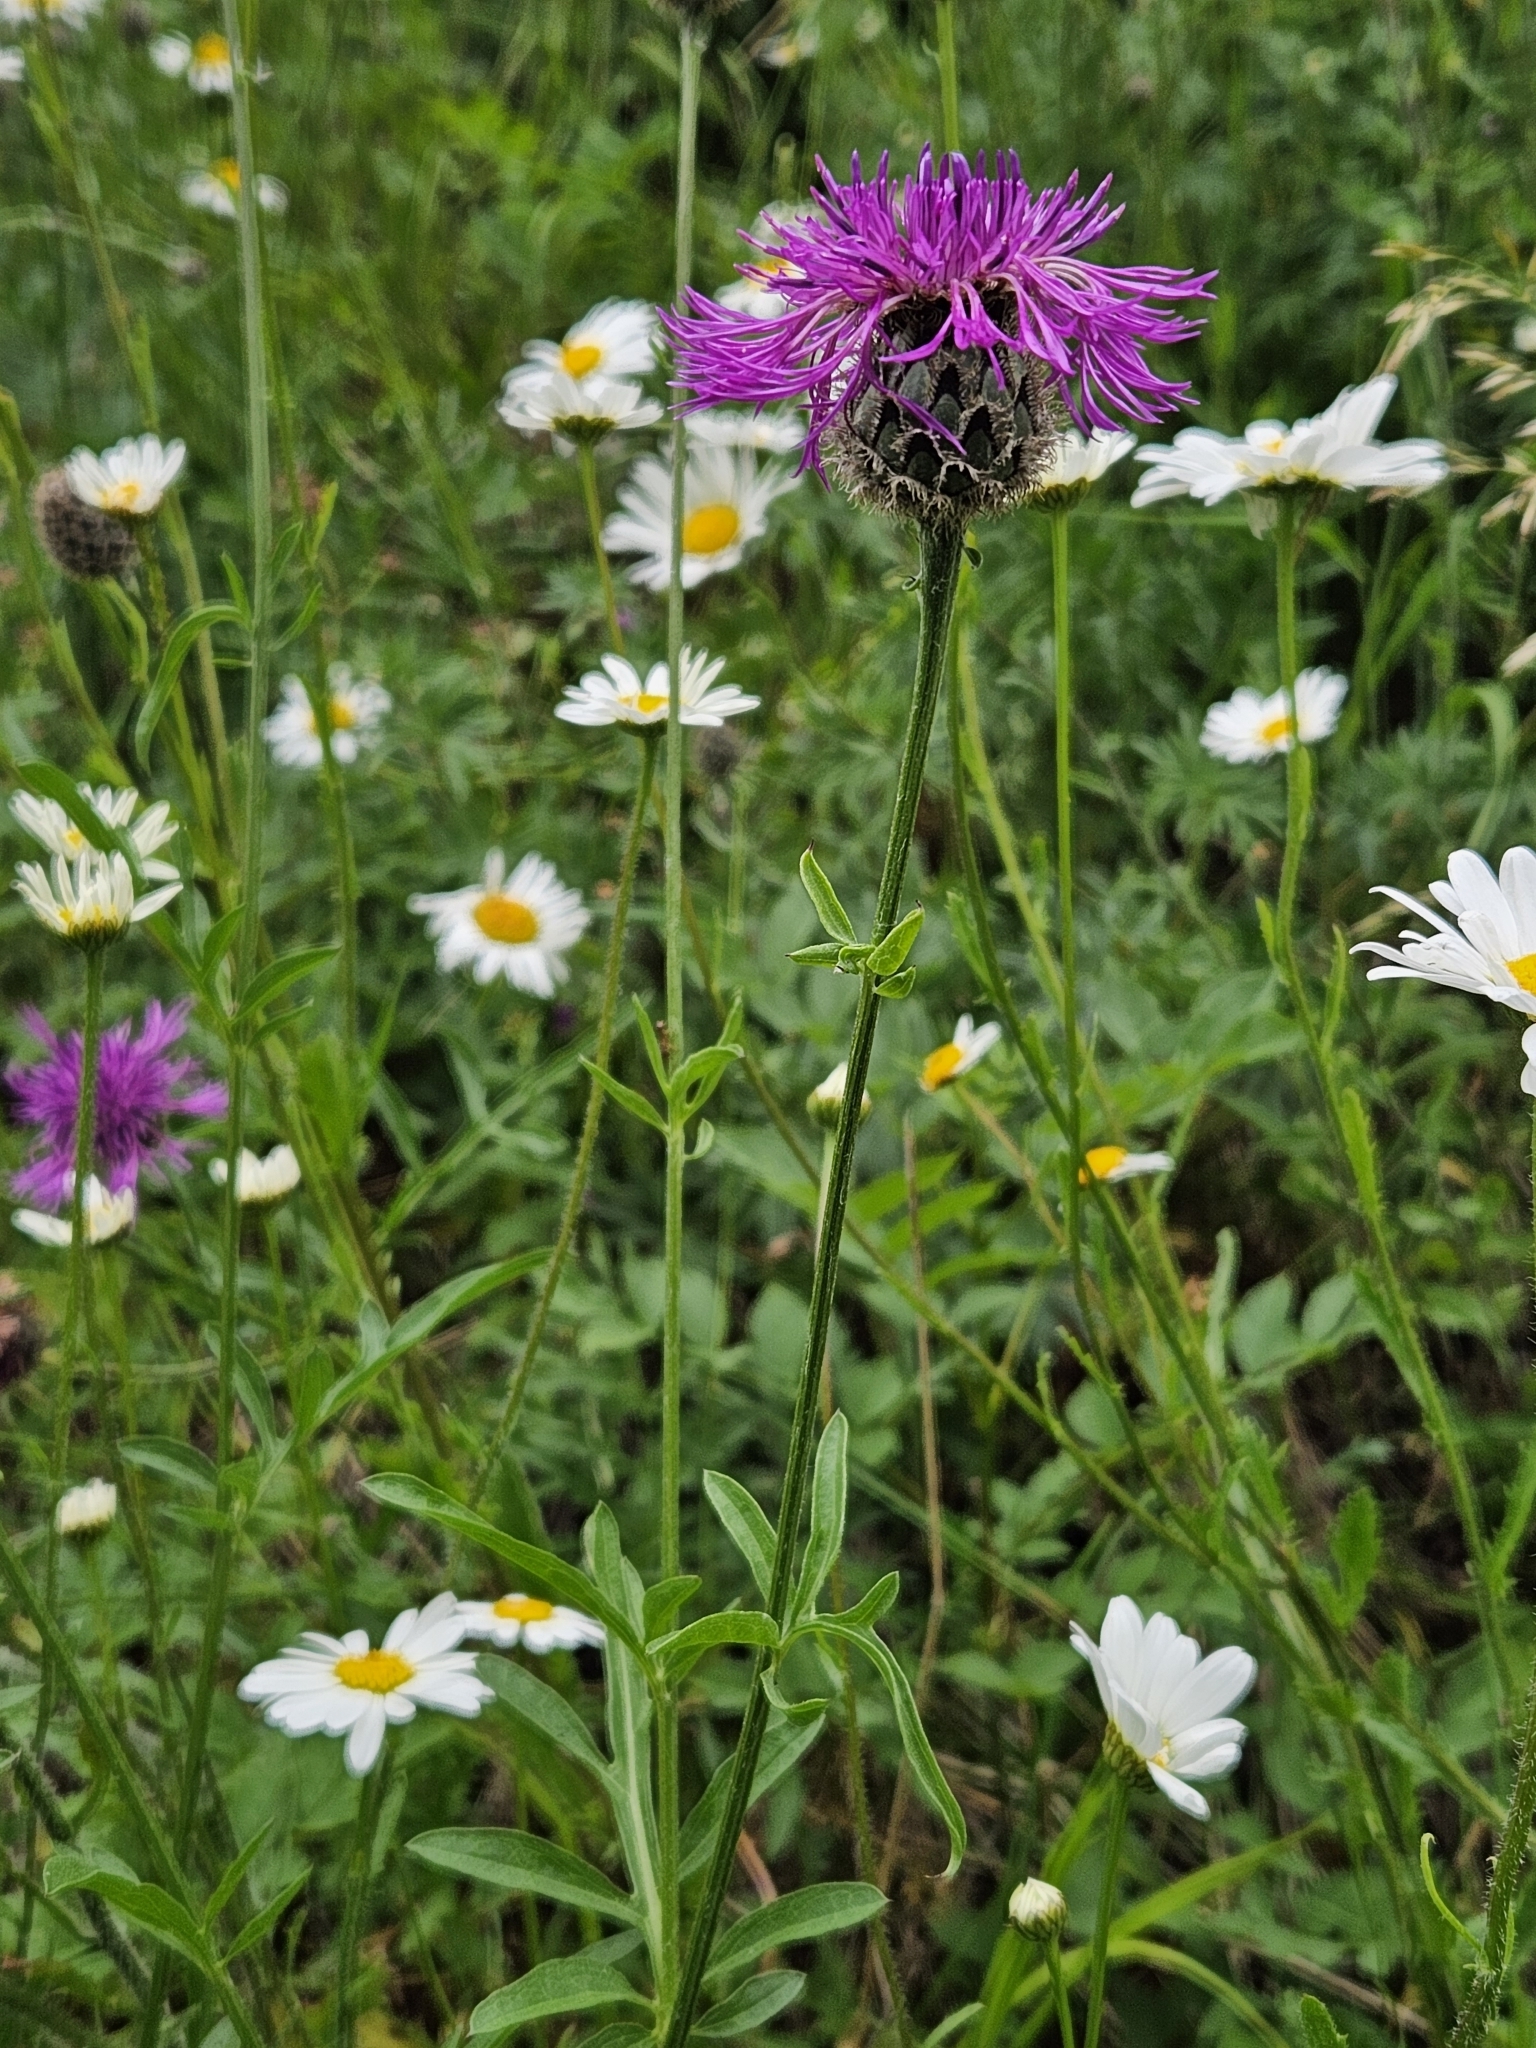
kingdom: Plantae
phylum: Tracheophyta
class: Magnoliopsida
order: Asterales
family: Asteraceae
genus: Centaurea
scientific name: Centaurea scabiosa
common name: Greater knapweed
